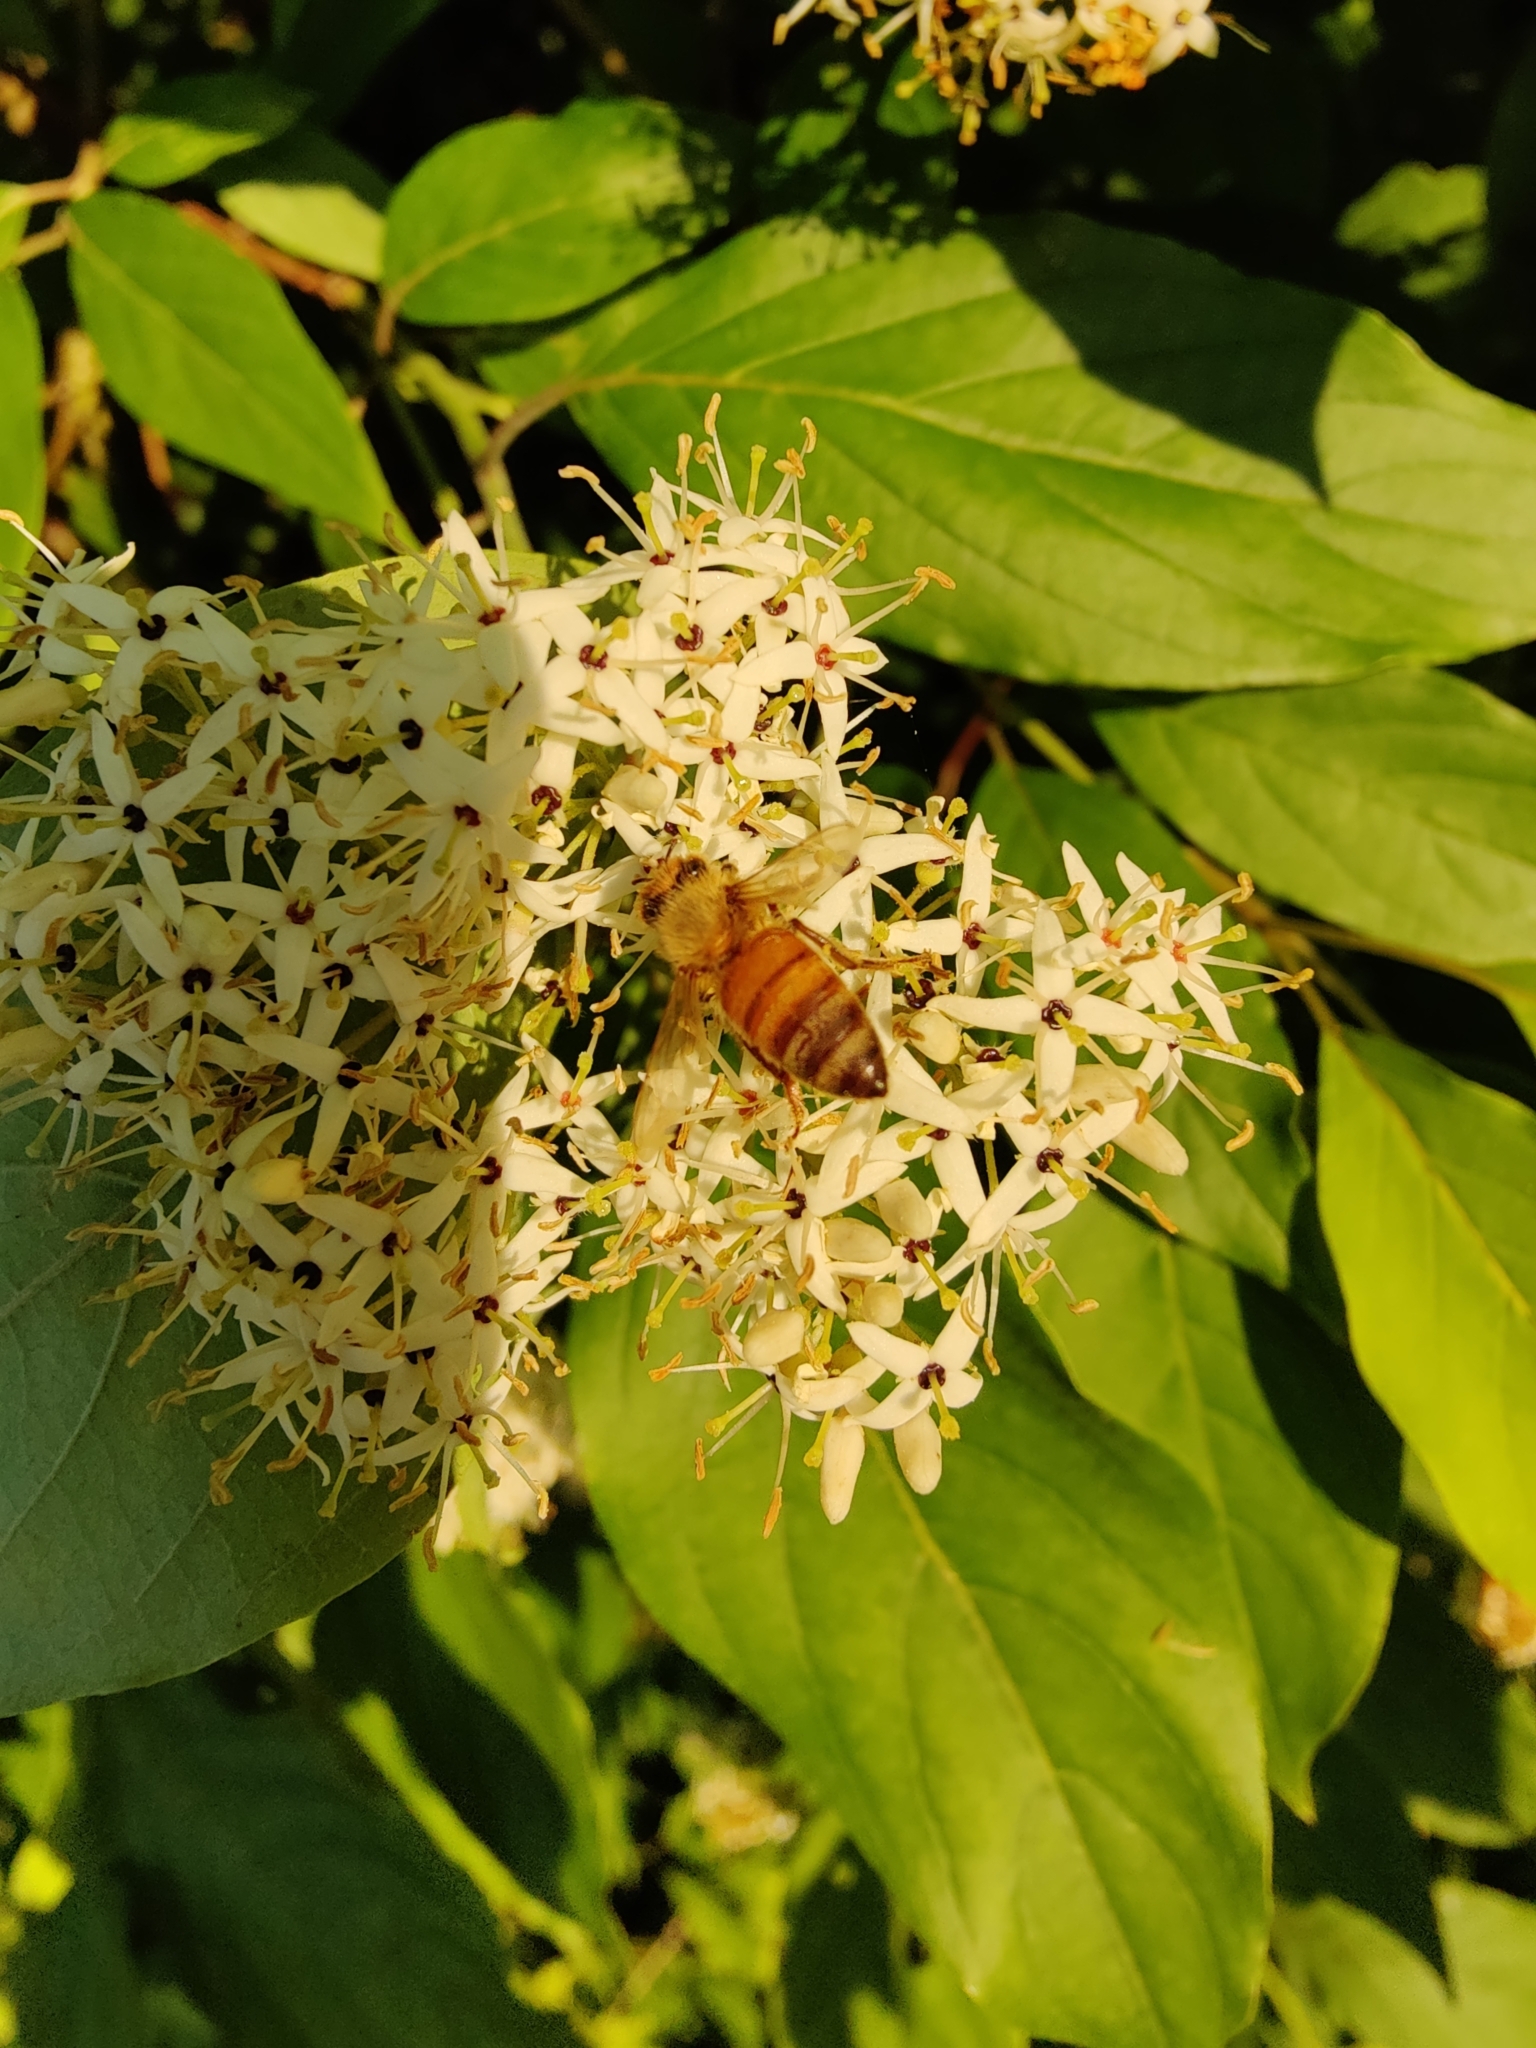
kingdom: Animalia
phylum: Arthropoda
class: Insecta
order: Hymenoptera
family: Apidae
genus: Apis
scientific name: Apis mellifera
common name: Honey bee
